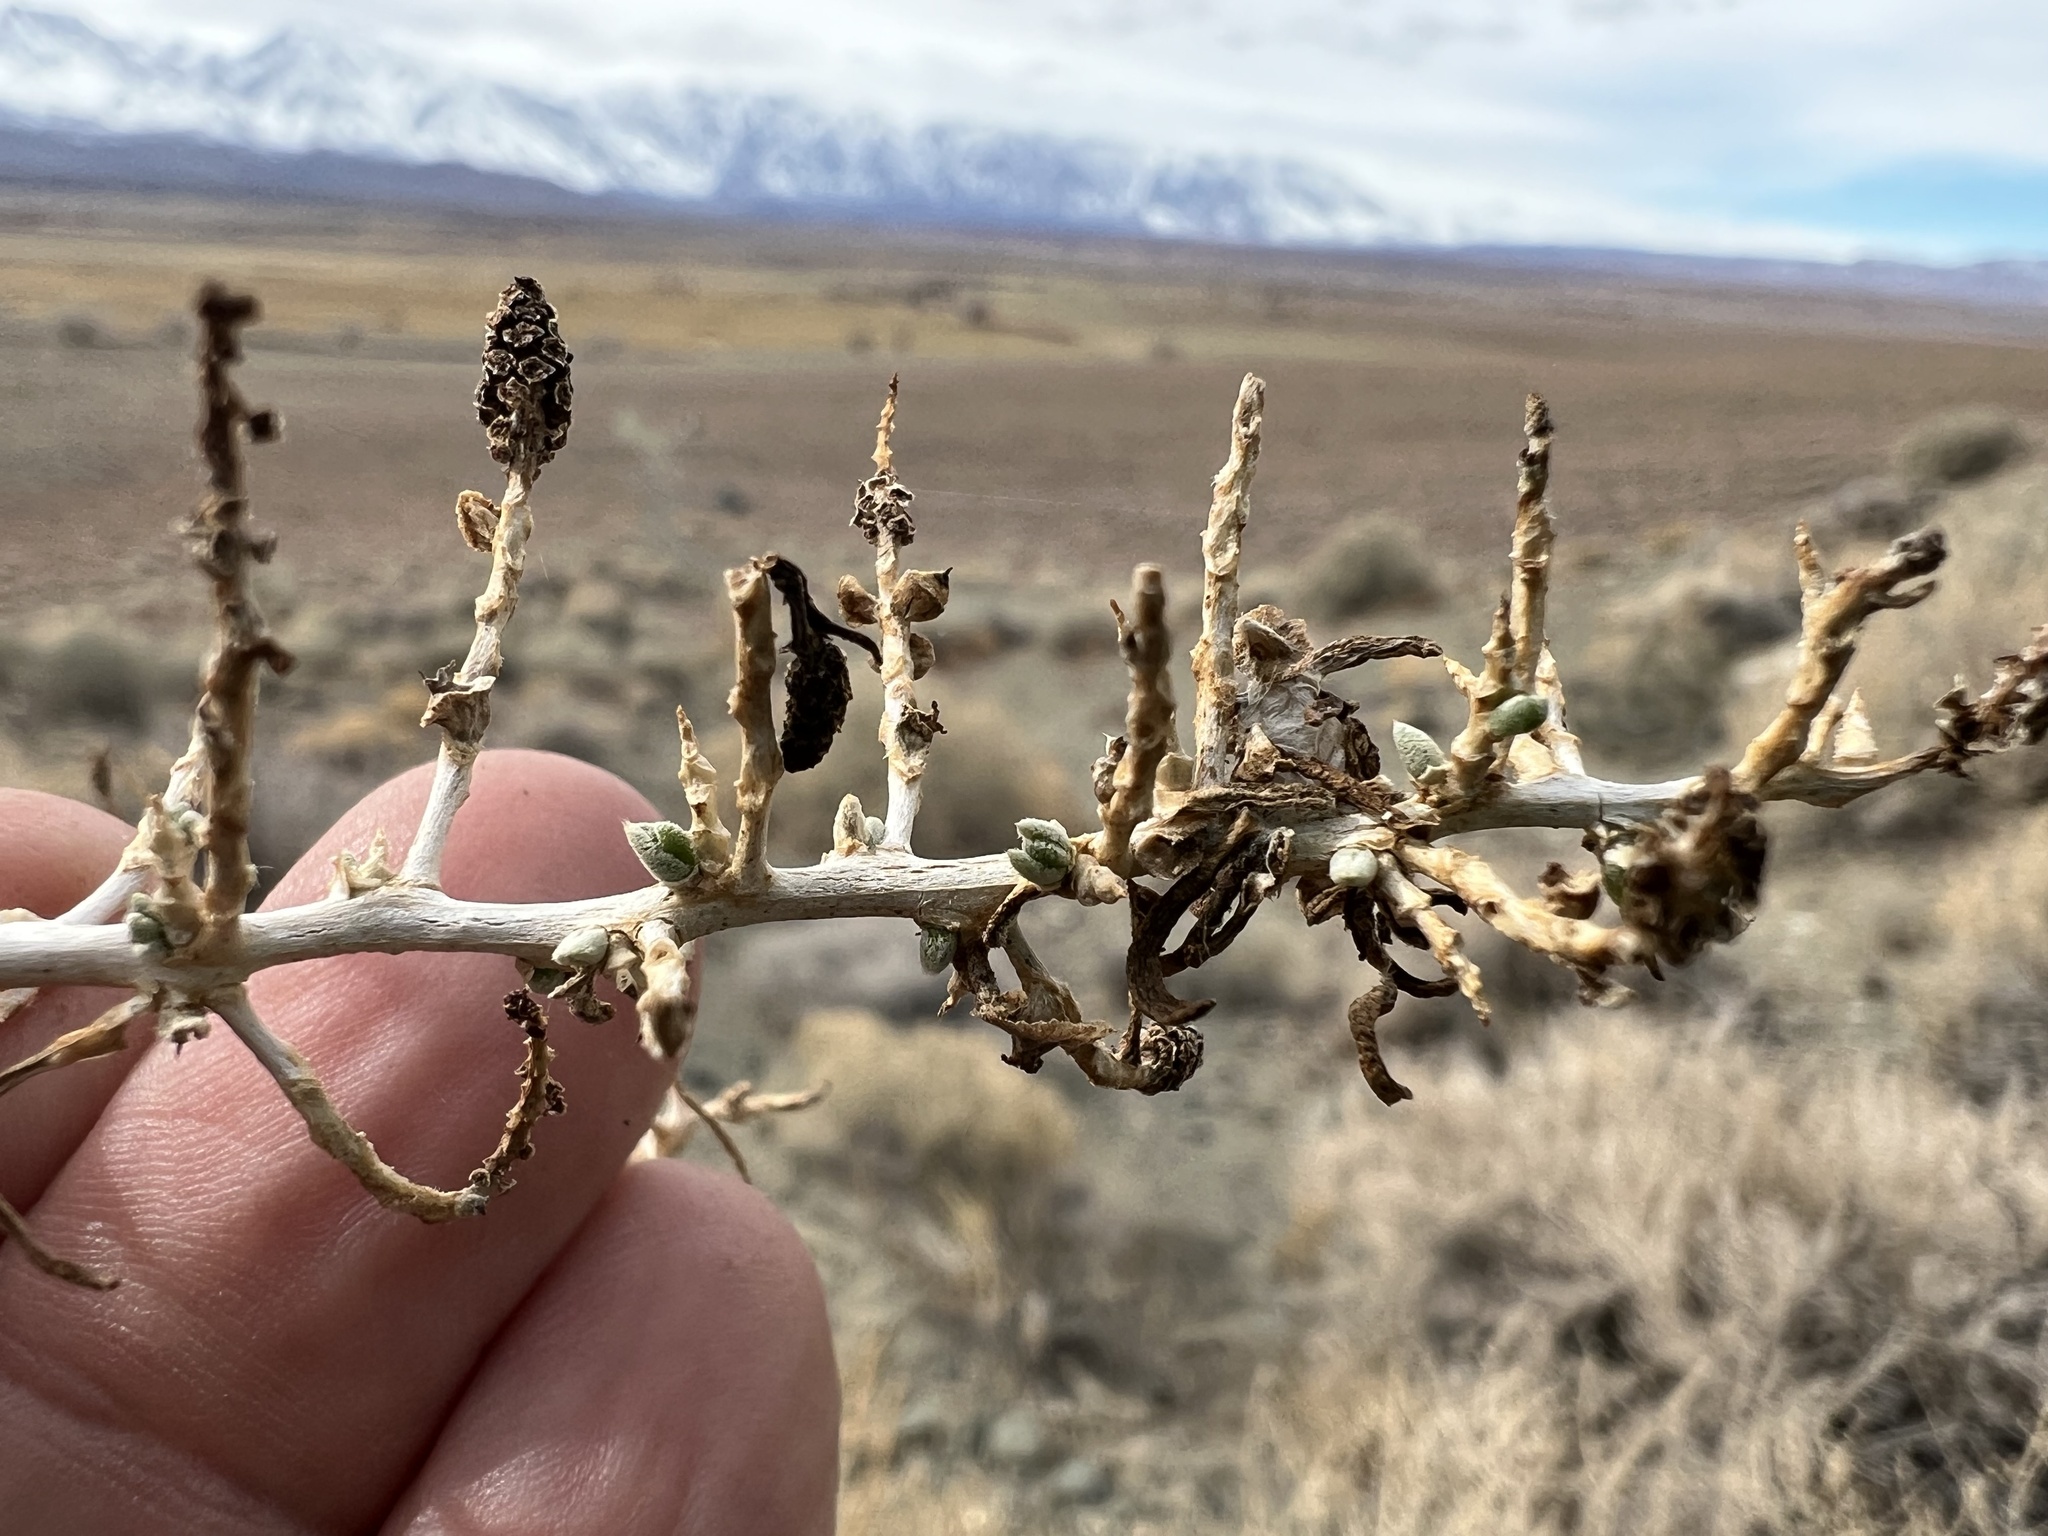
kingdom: Plantae
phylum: Tracheophyta
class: Magnoliopsida
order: Caryophyllales
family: Sarcobataceae
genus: Sarcobatus
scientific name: Sarcobatus vermiculatus
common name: Greasewood
